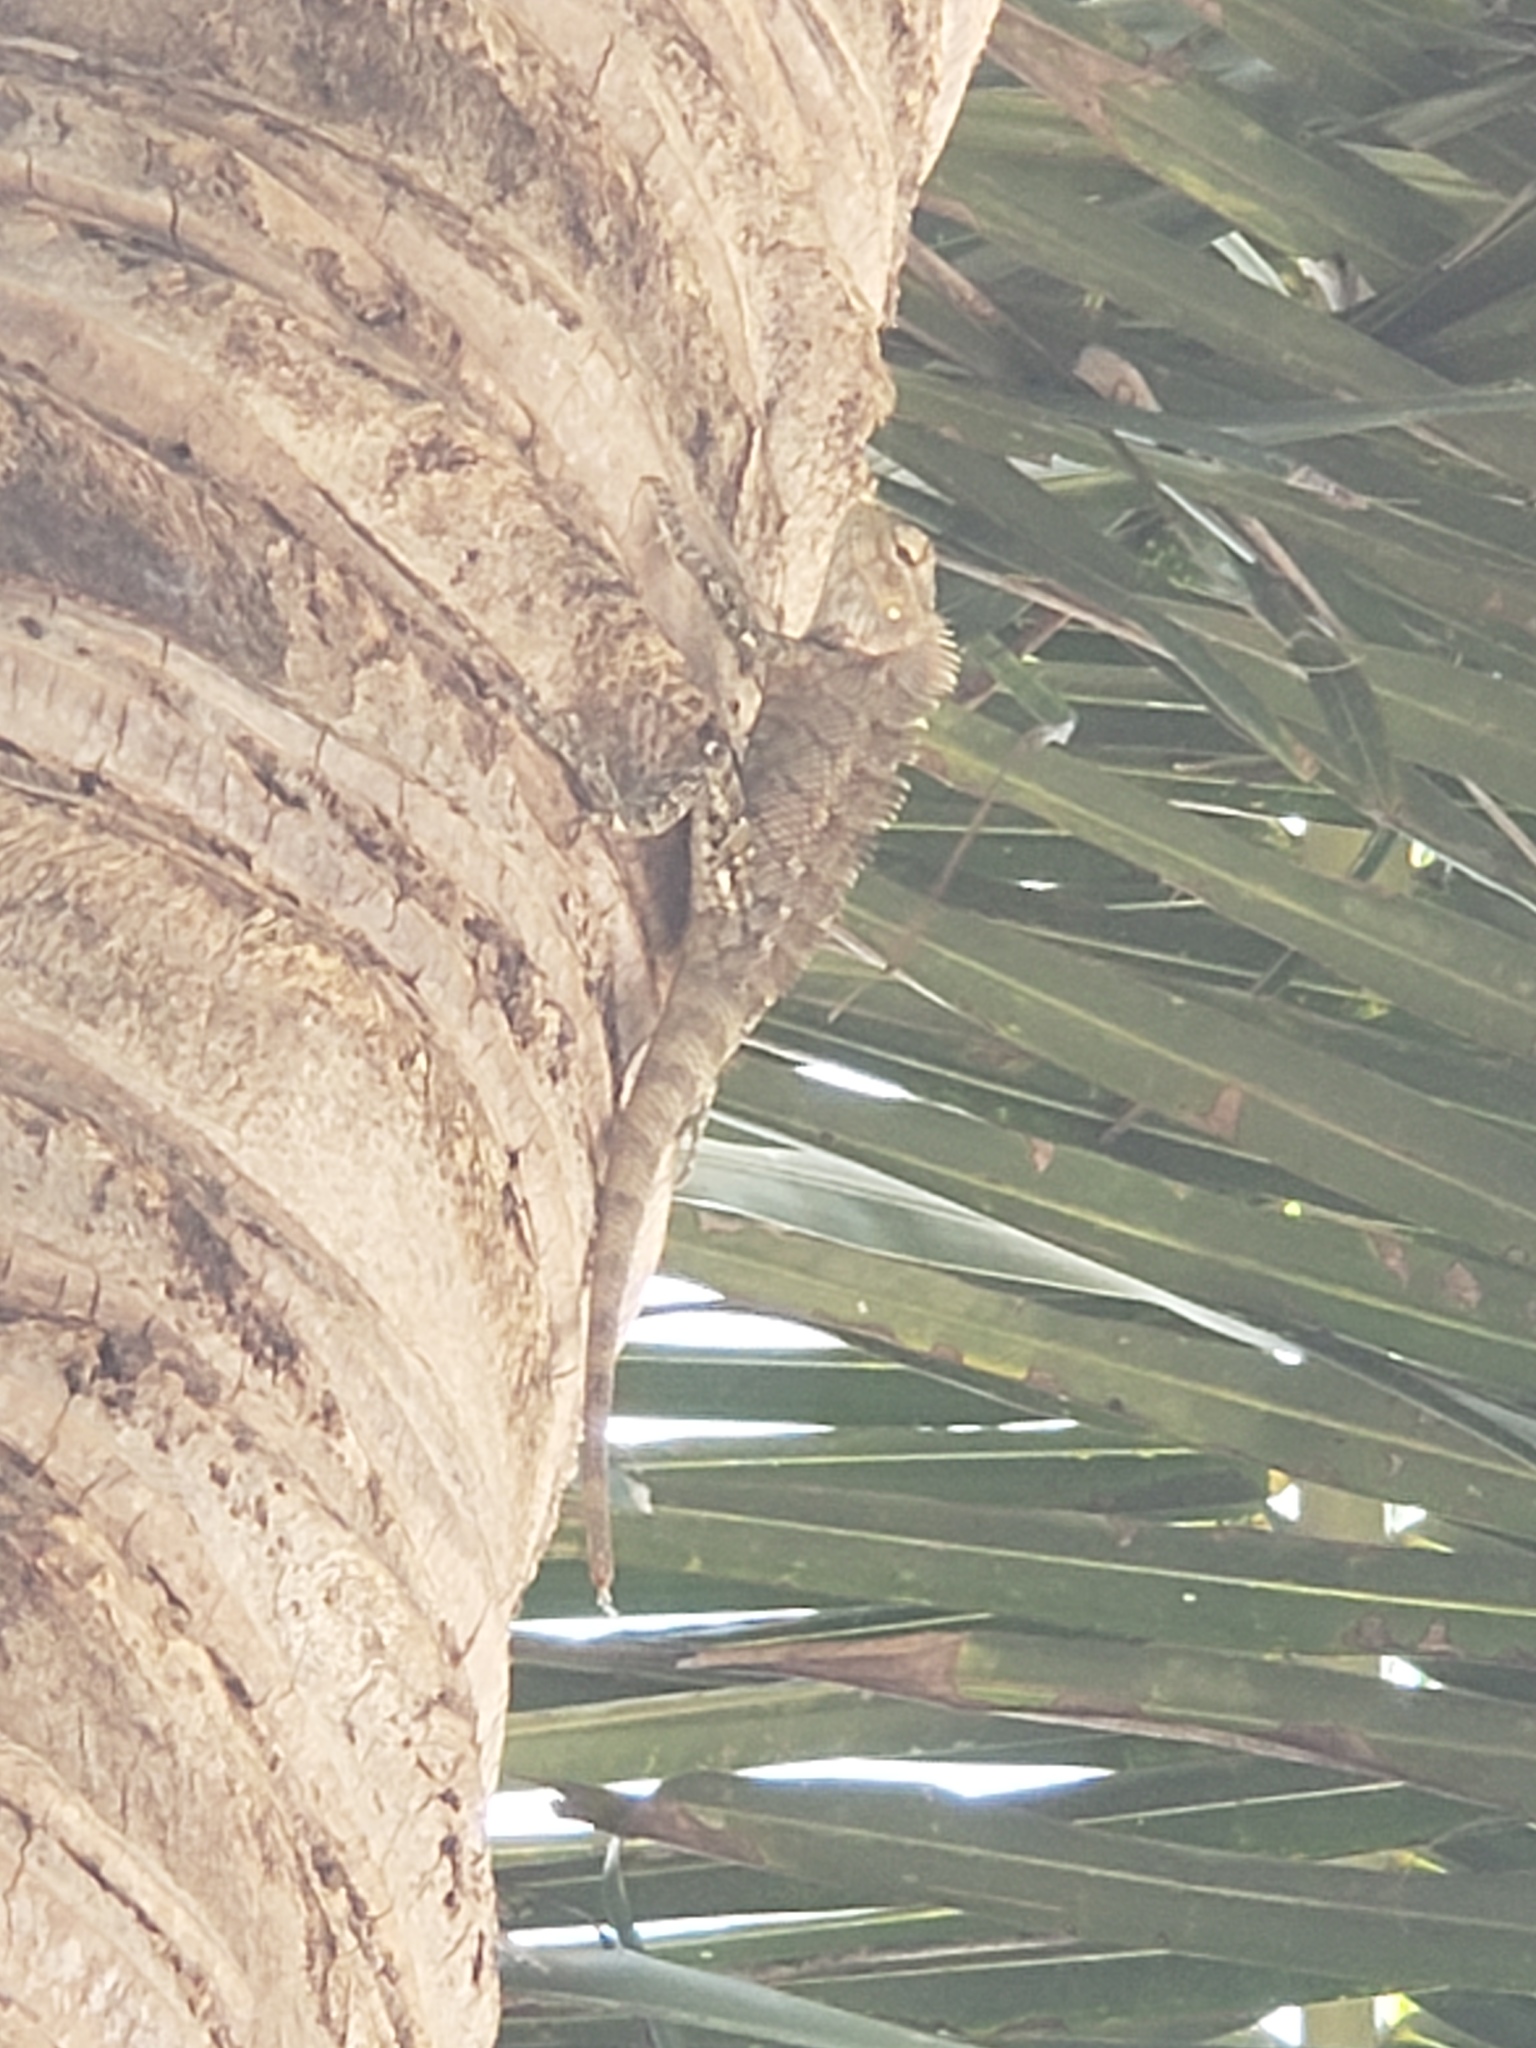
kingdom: Animalia
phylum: Chordata
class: Squamata
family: Agamidae
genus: Calotes
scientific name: Calotes versicolor
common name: Oriental garden lizard
